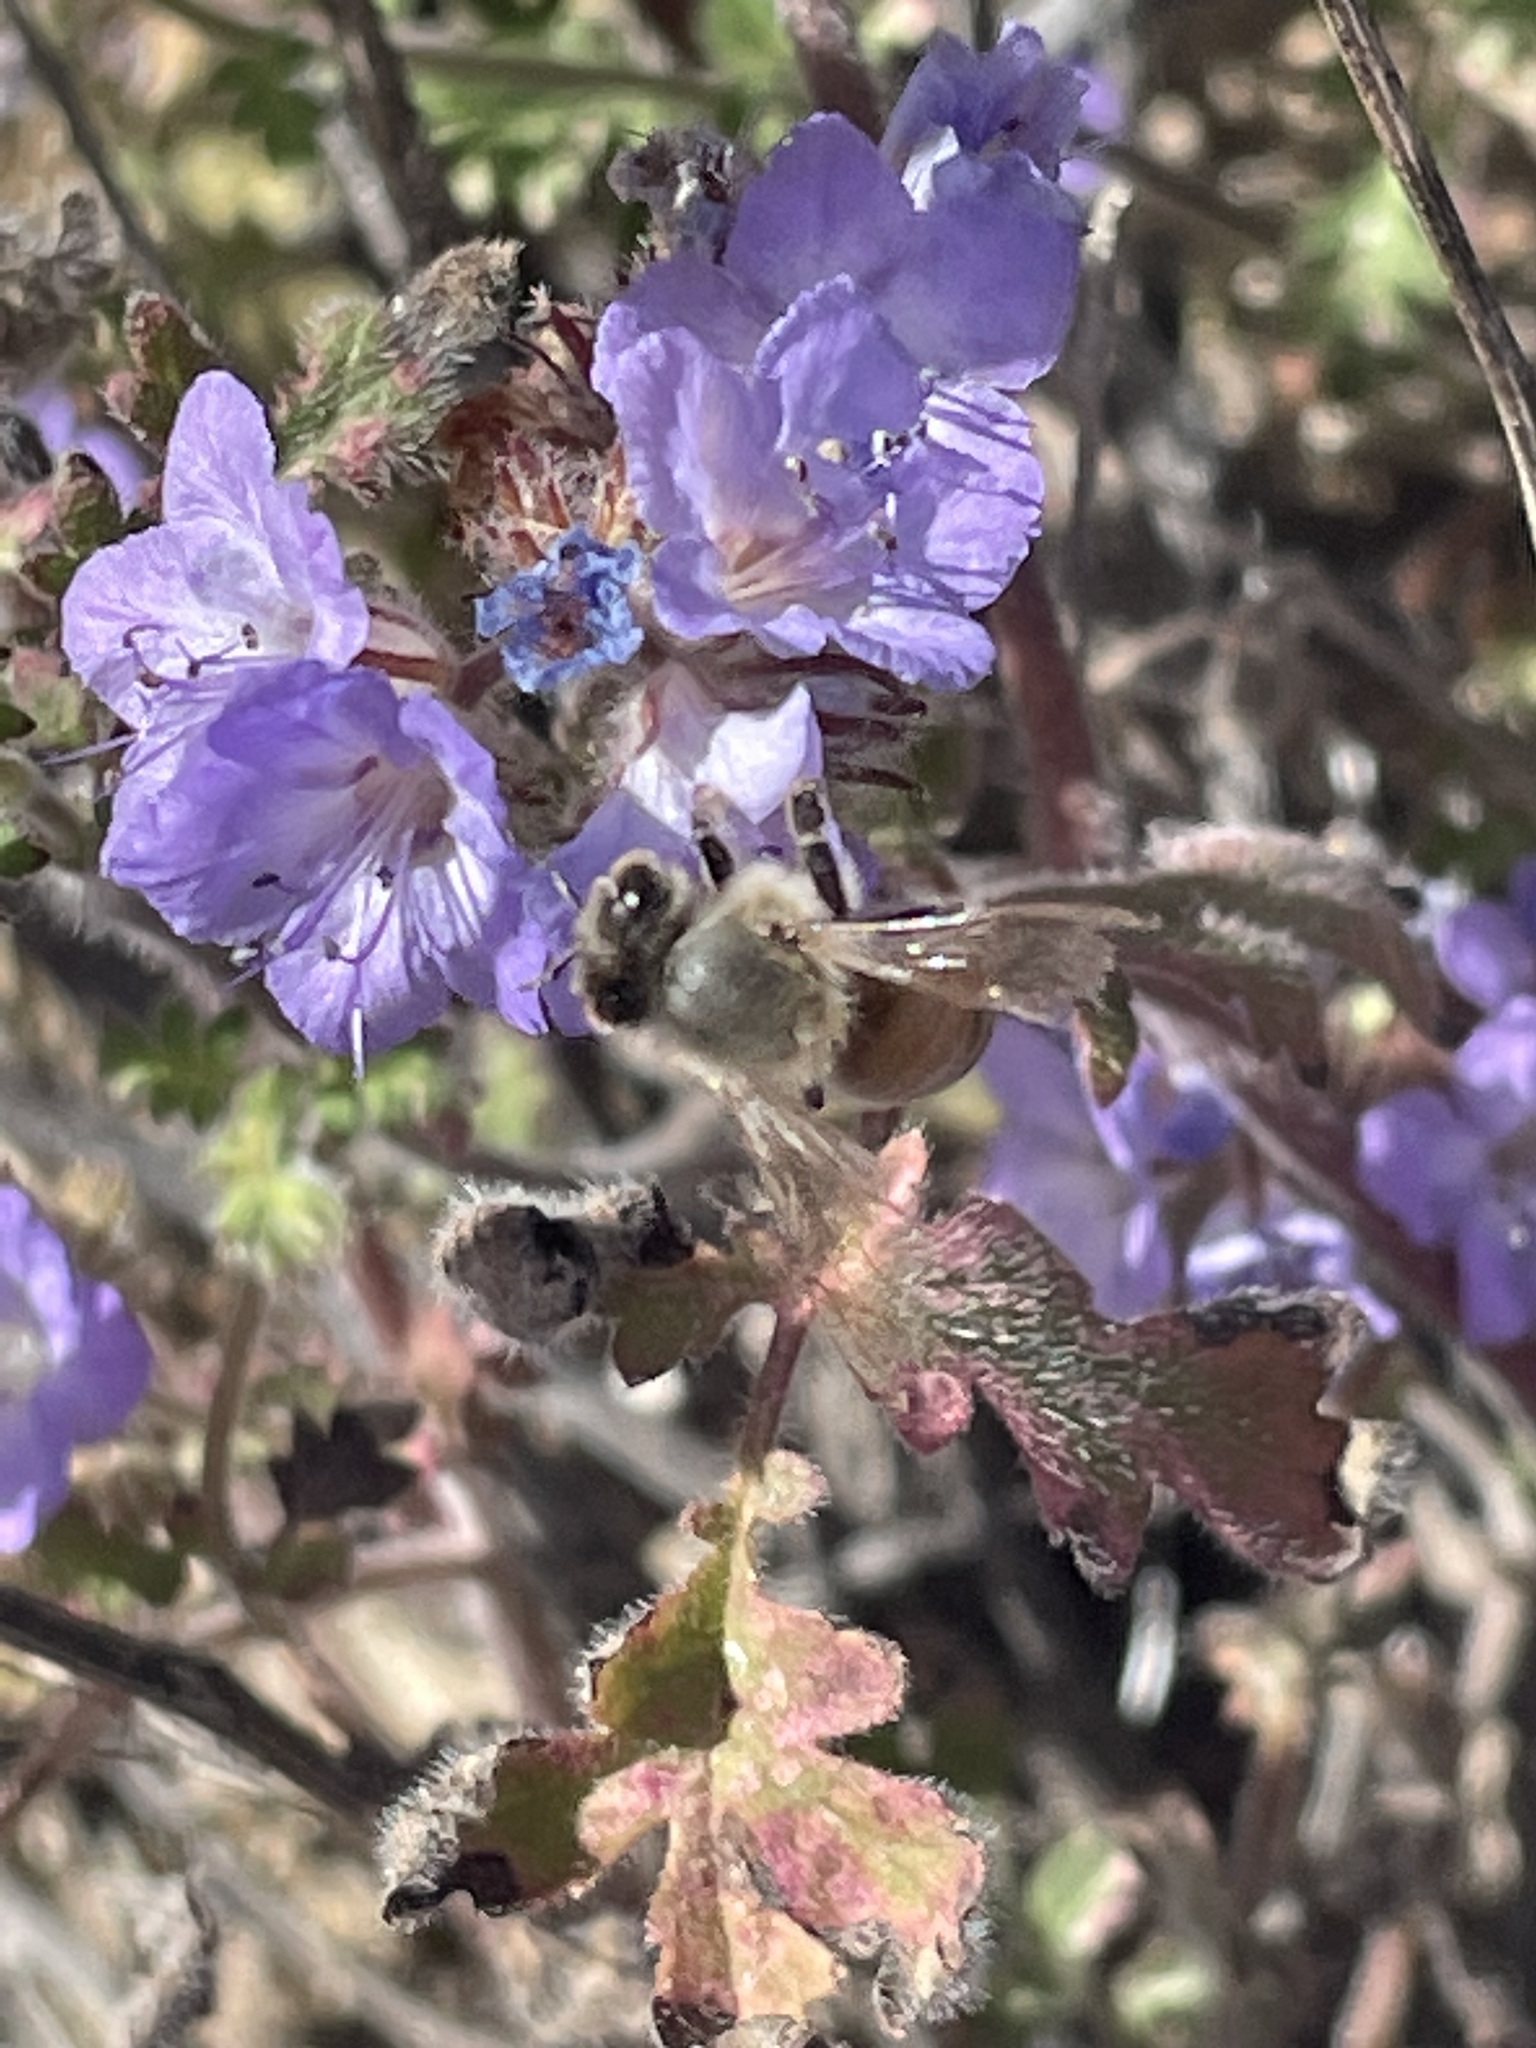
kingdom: Animalia
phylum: Arthropoda
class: Insecta
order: Hymenoptera
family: Apidae
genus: Apis
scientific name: Apis mellifera
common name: Honey bee
